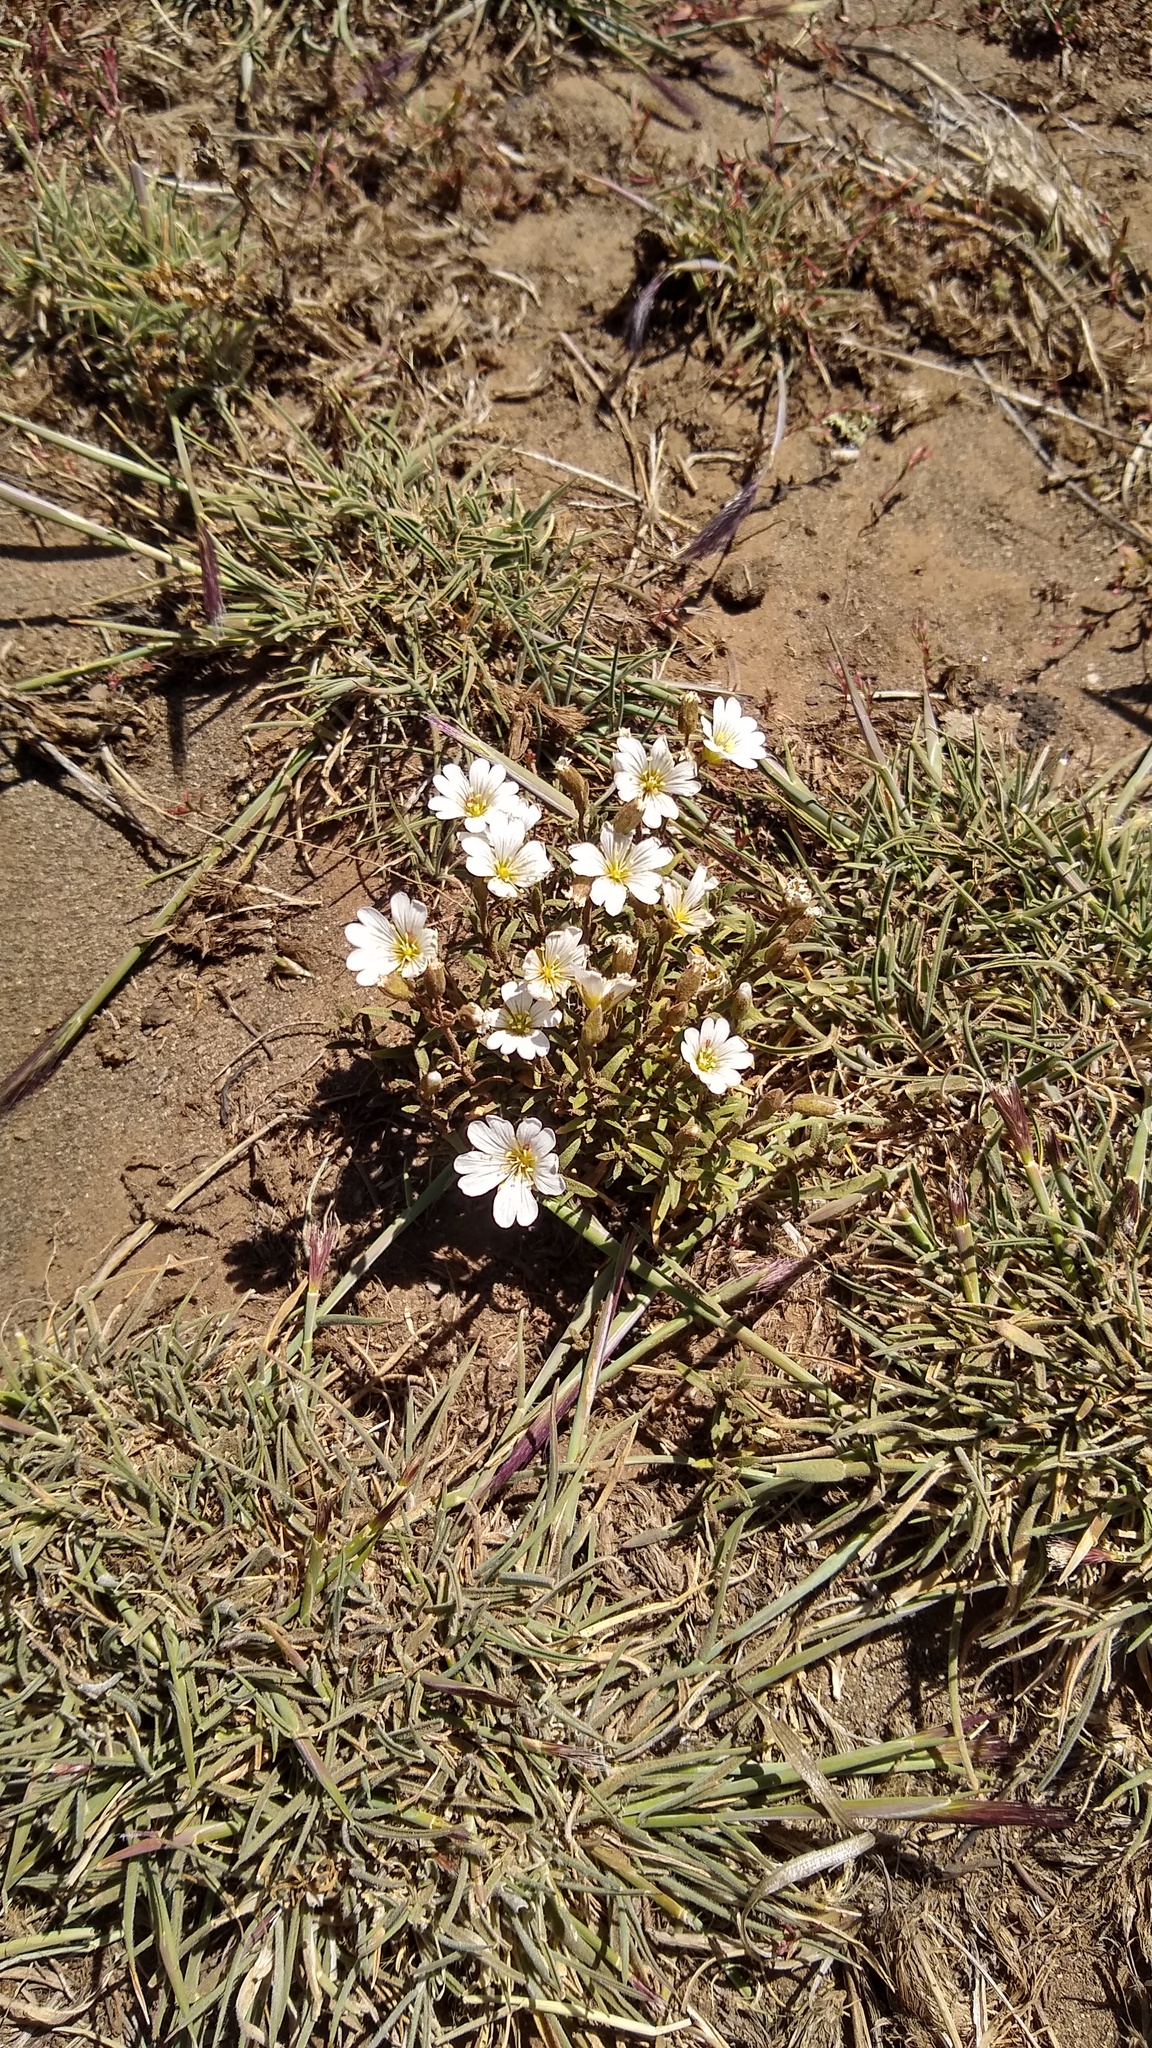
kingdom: Plantae
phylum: Tracheophyta
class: Magnoliopsida
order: Caryophyllales
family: Caryophyllaceae
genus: Cerastium
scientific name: Cerastium arvense
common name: Field mouse-ear
